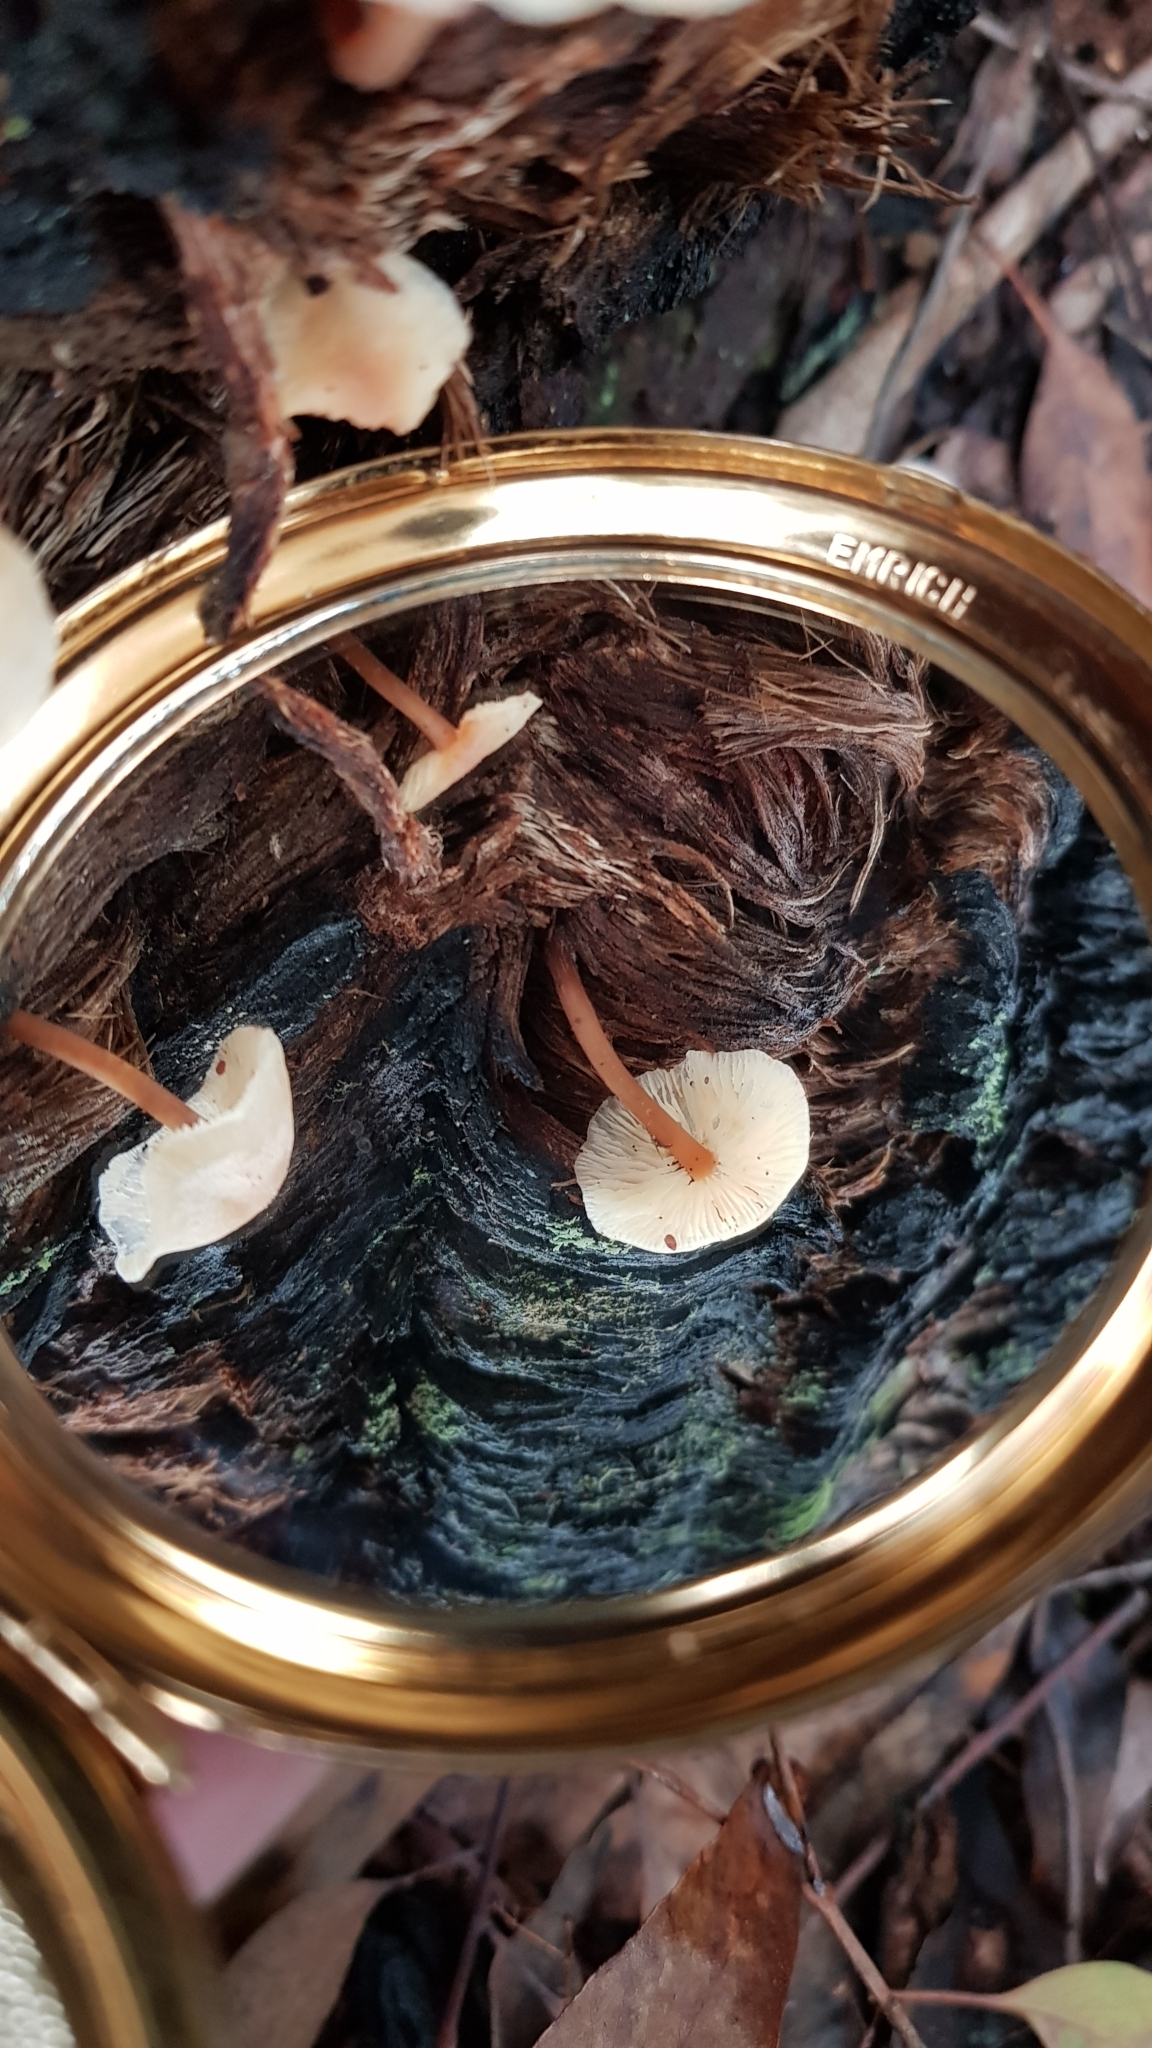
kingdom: Fungi
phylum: Basidiomycota
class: Agaricomycetes
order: Agaricales
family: Omphalotaceae
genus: Rhodocollybia
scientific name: Rhodocollybia
